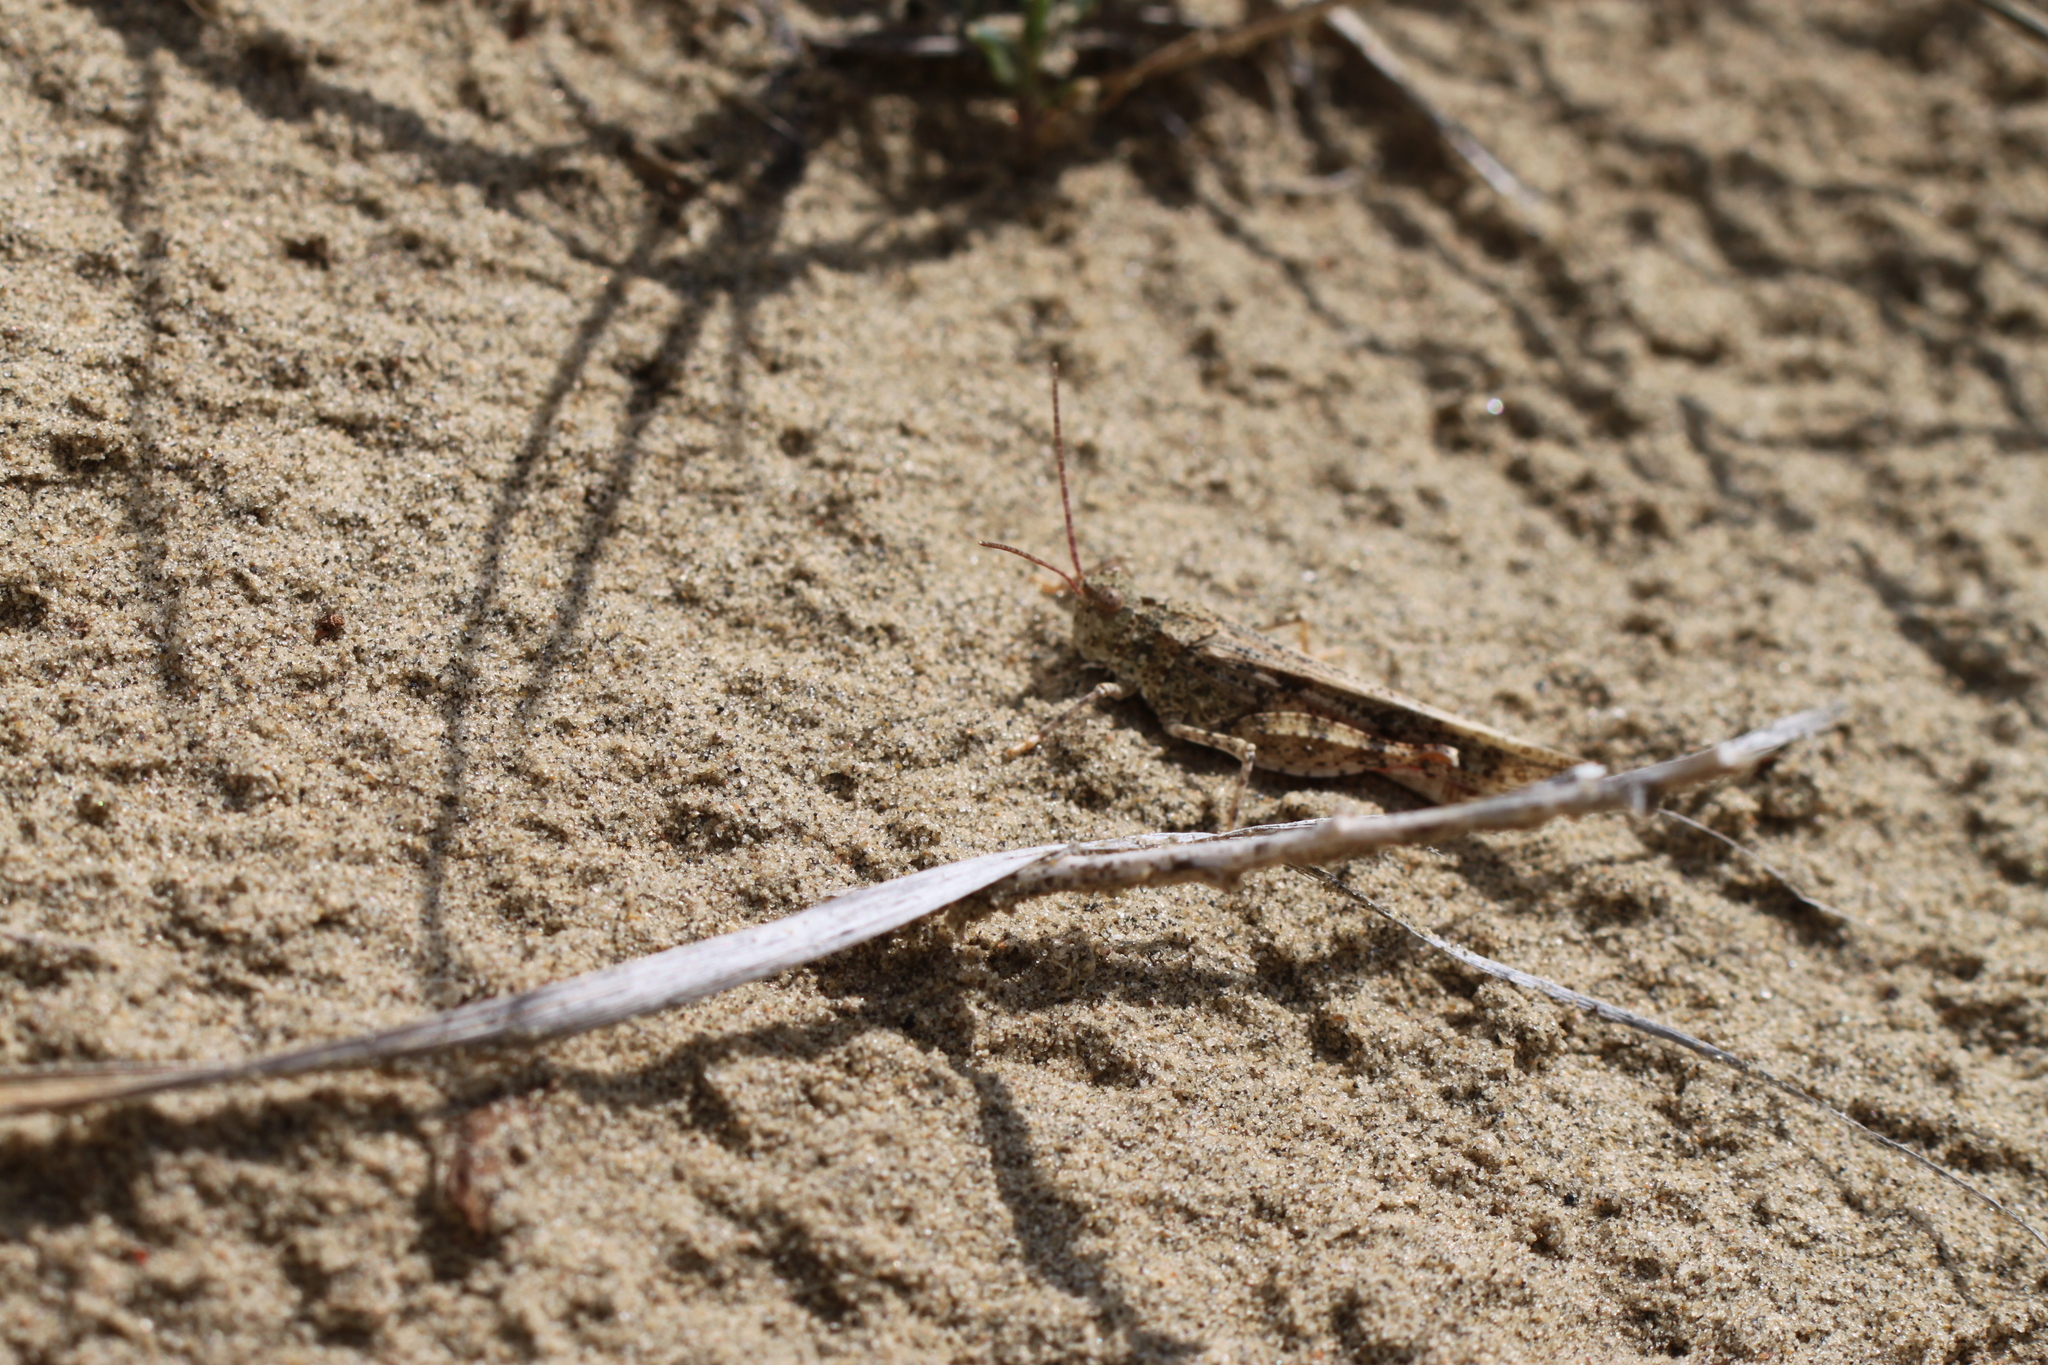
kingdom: Animalia
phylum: Arthropoda
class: Insecta
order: Orthoptera
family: Acrididae
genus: Trimerotropis
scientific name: Trimerotropis agrestis
